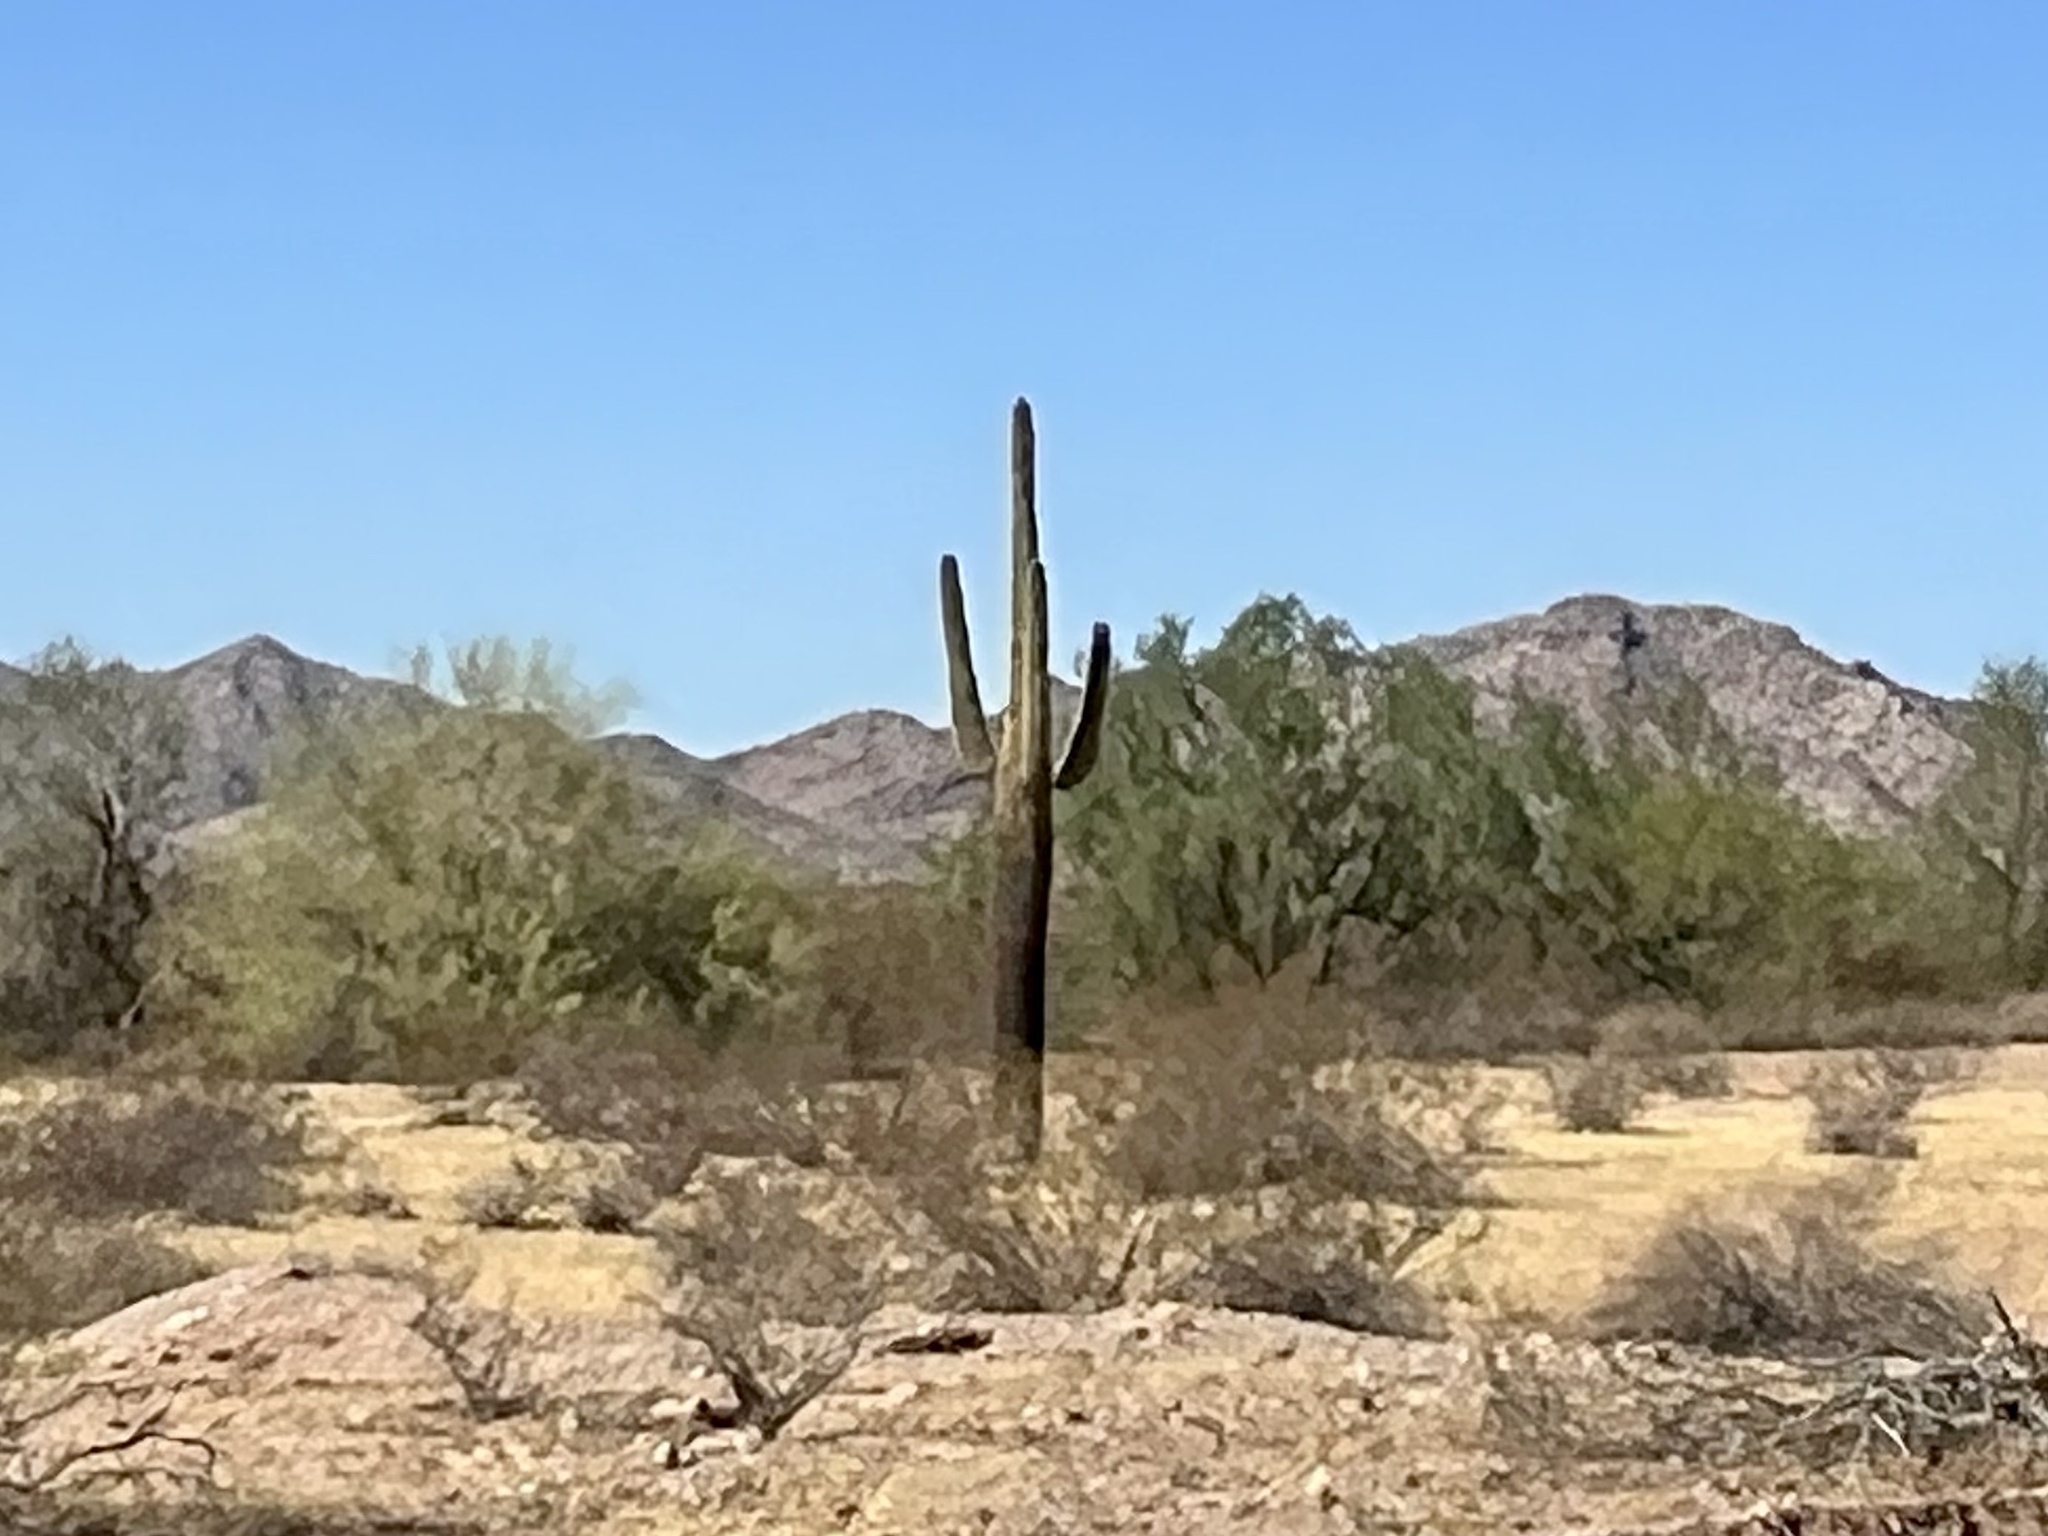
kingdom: Plantae
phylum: Tracheophyta
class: Magnoliopsida
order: Caryophyllales
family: Cactaceae
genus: Carnegiea
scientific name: Carnegiea gigantea
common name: Saguaro
